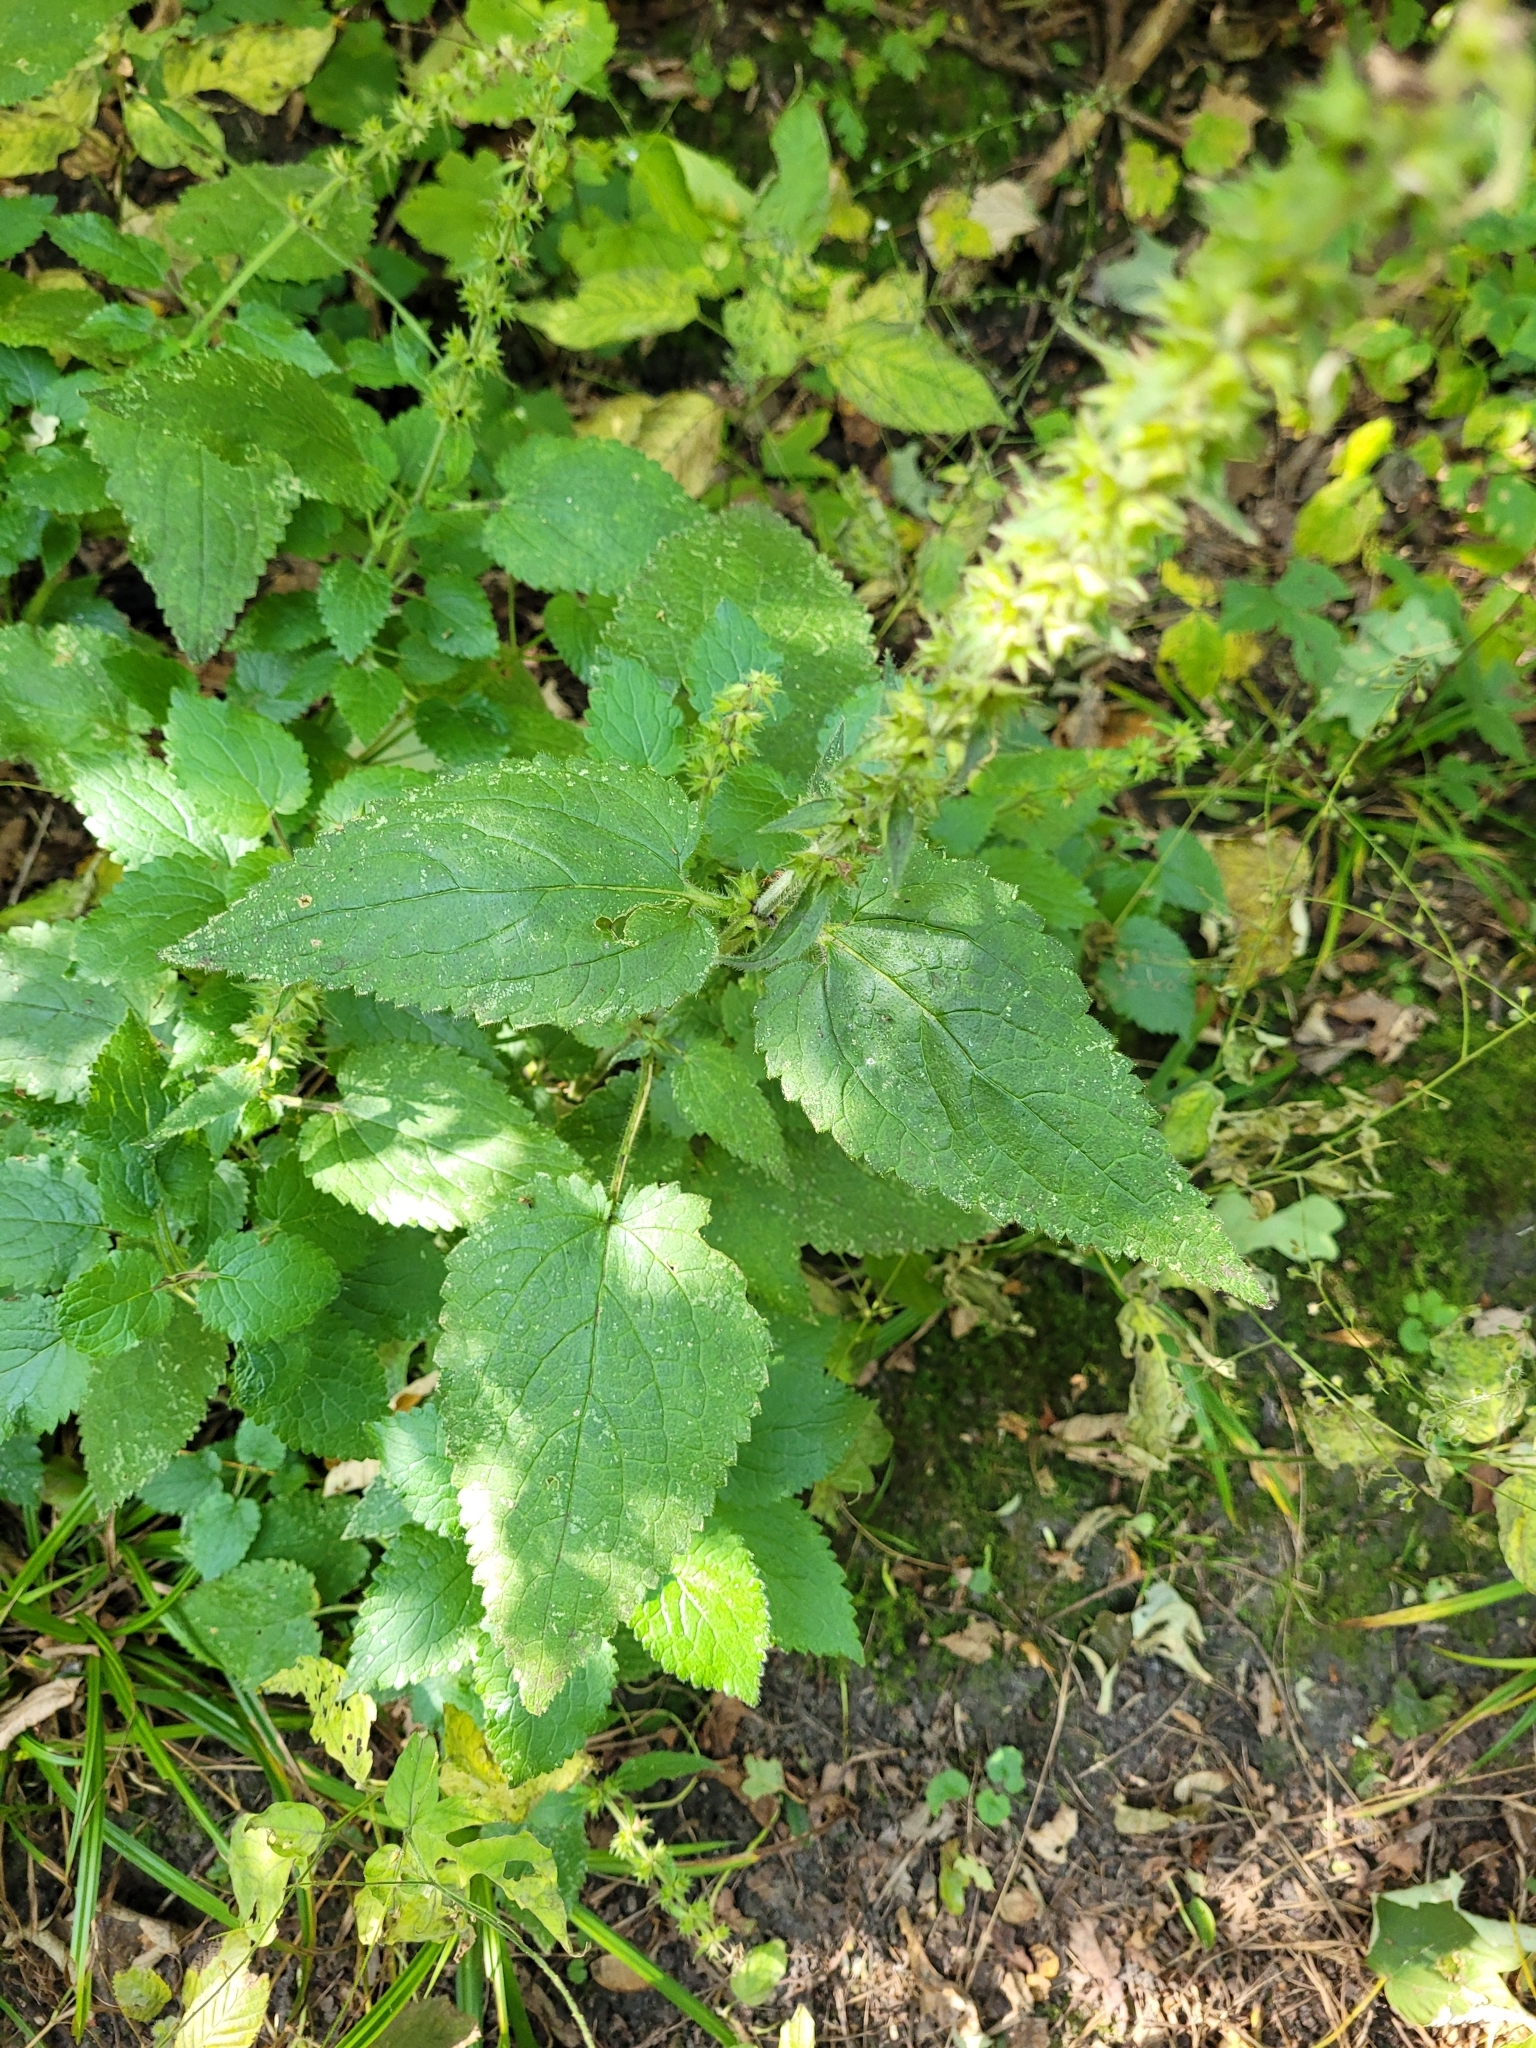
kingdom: Plantae
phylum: Tracheophyta
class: Magnoliopsida
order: Lamiales
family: Lamiaceae
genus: Stachys
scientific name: Stachys sylvatica
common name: Hedge woundwort
